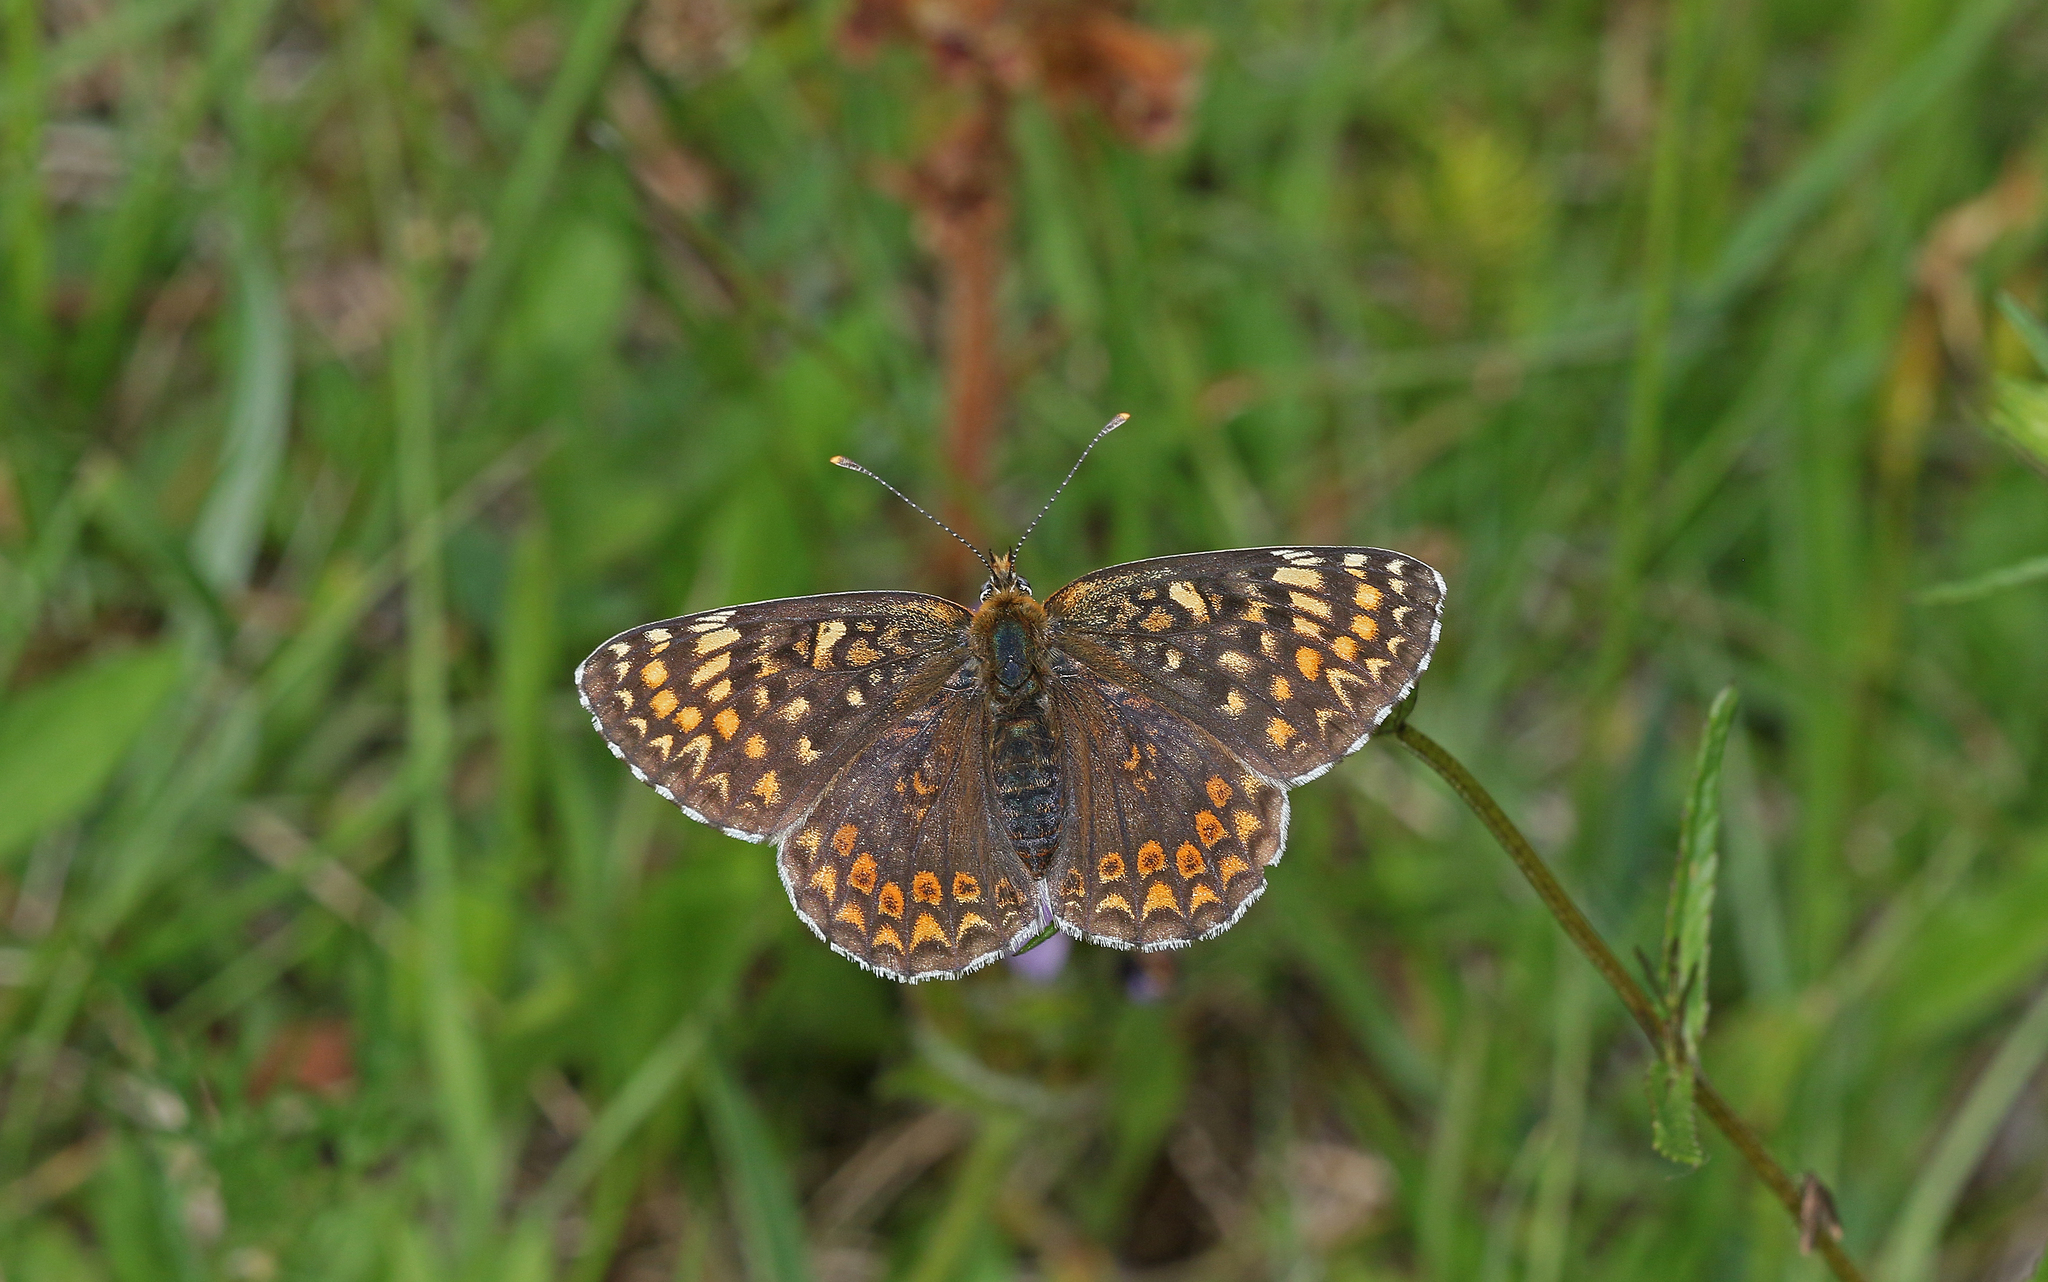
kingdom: Animalia
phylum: Arthropoda
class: Insecta
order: Lepidoptera
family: Nymphalidae
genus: Melitaea
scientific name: Melitaea phoebe
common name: Knapweed fritillary
